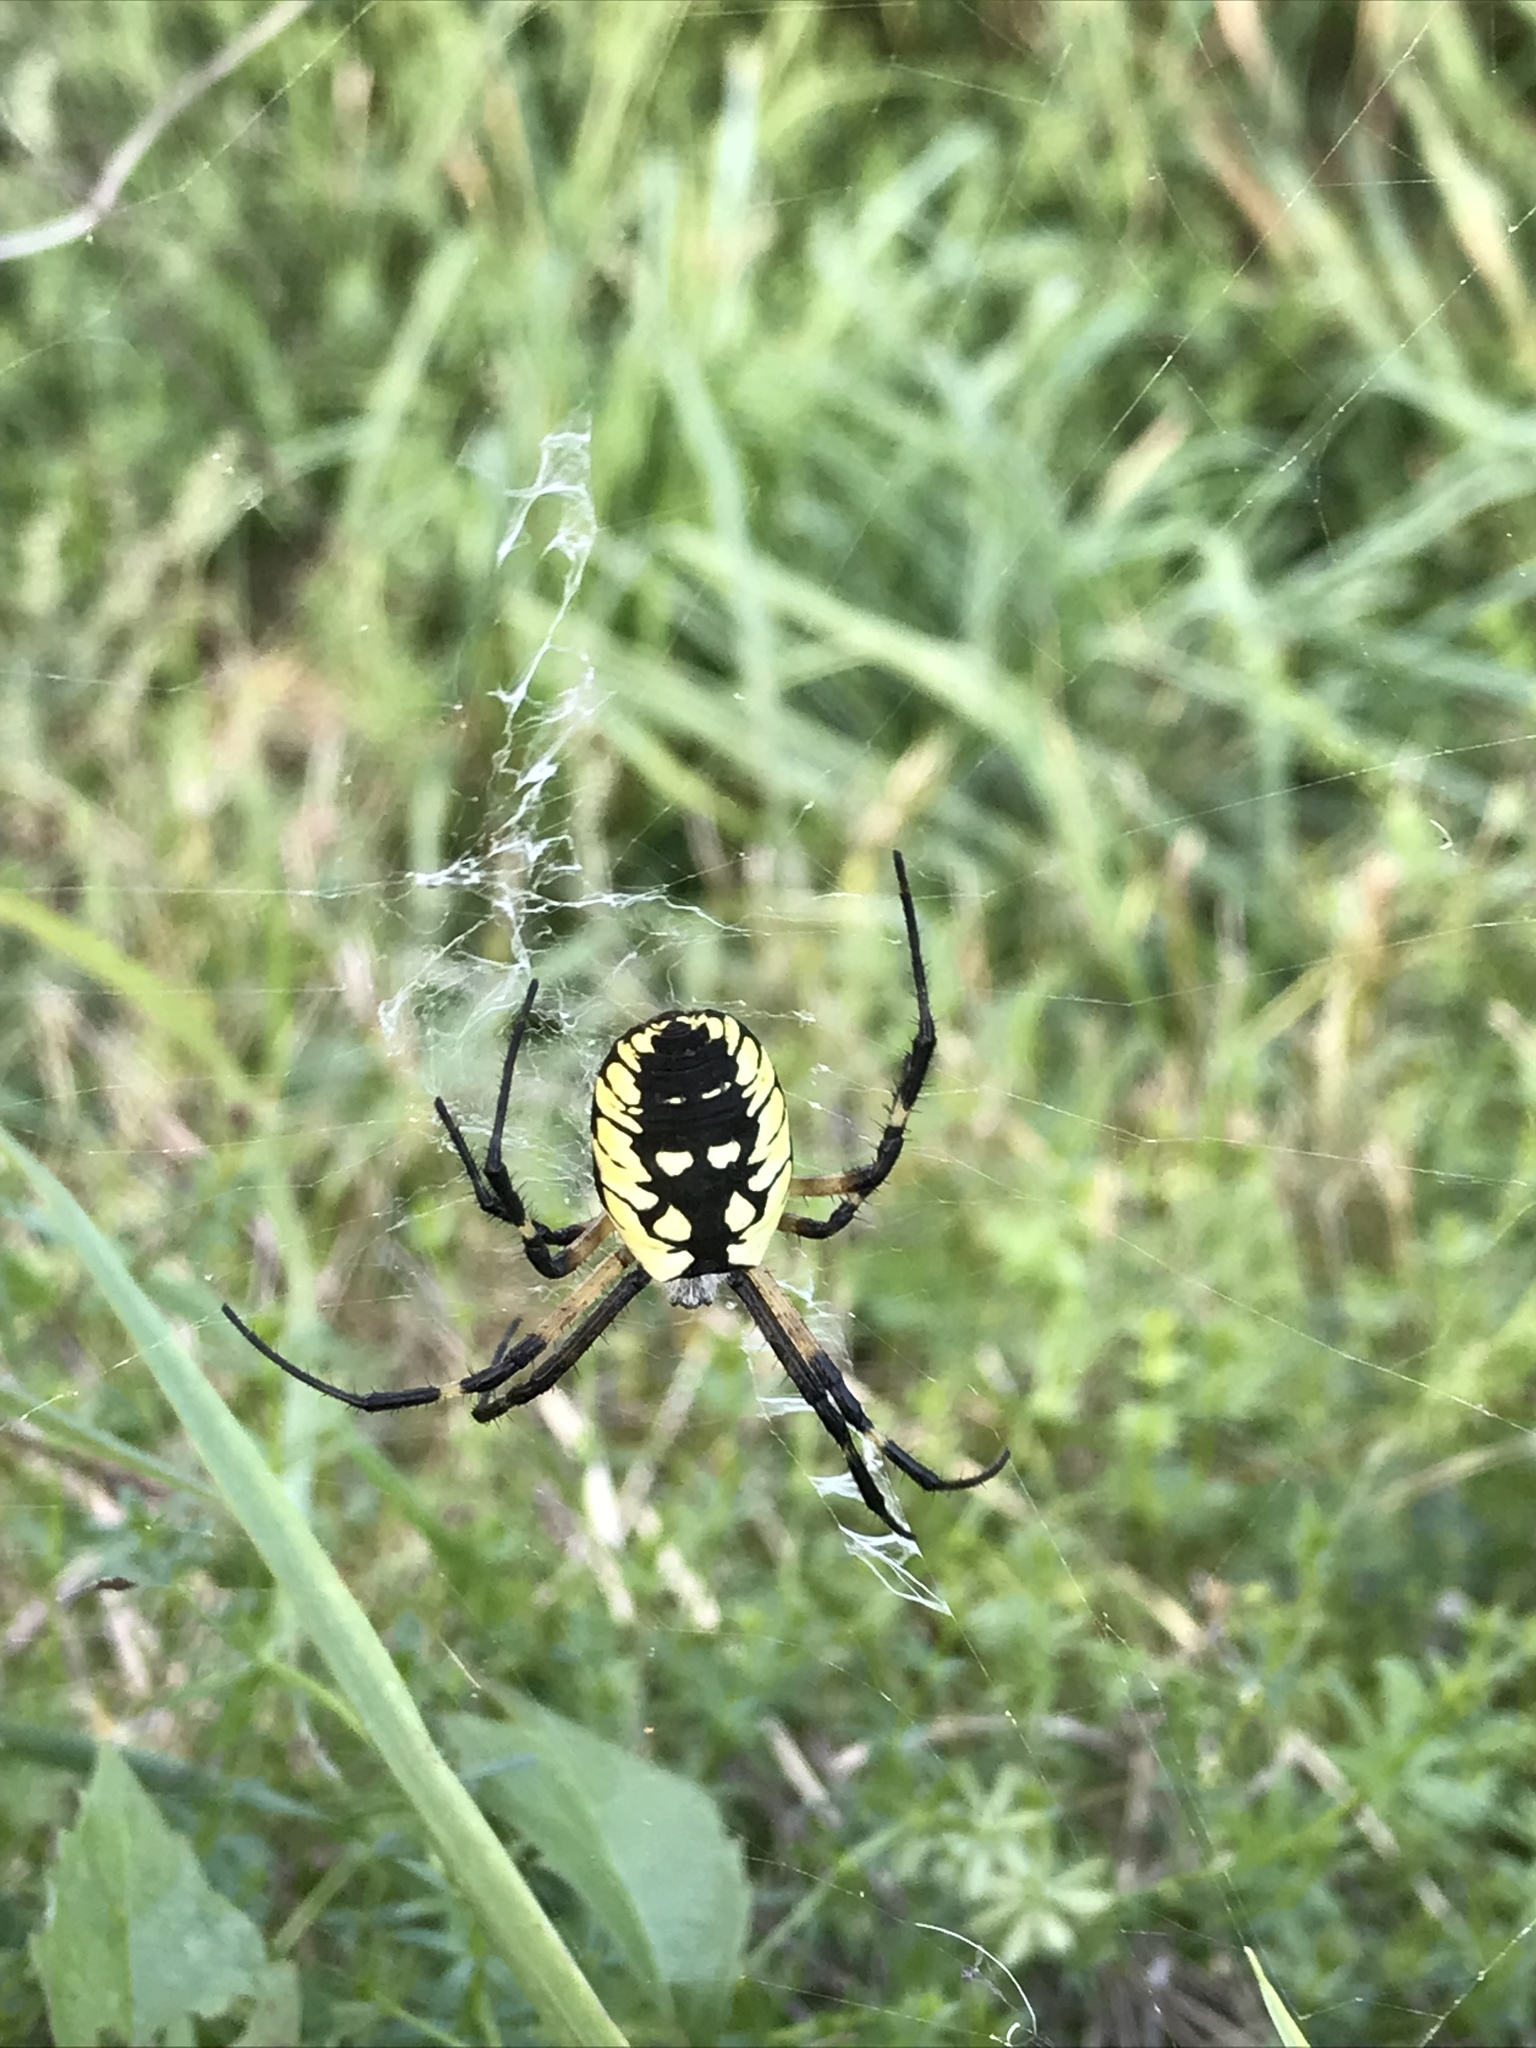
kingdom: Animalia
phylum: Arthropoda
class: Arachnida
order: Araneae
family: Araneidae
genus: Argiope
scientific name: Argiope aurantia
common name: Orb weavers
